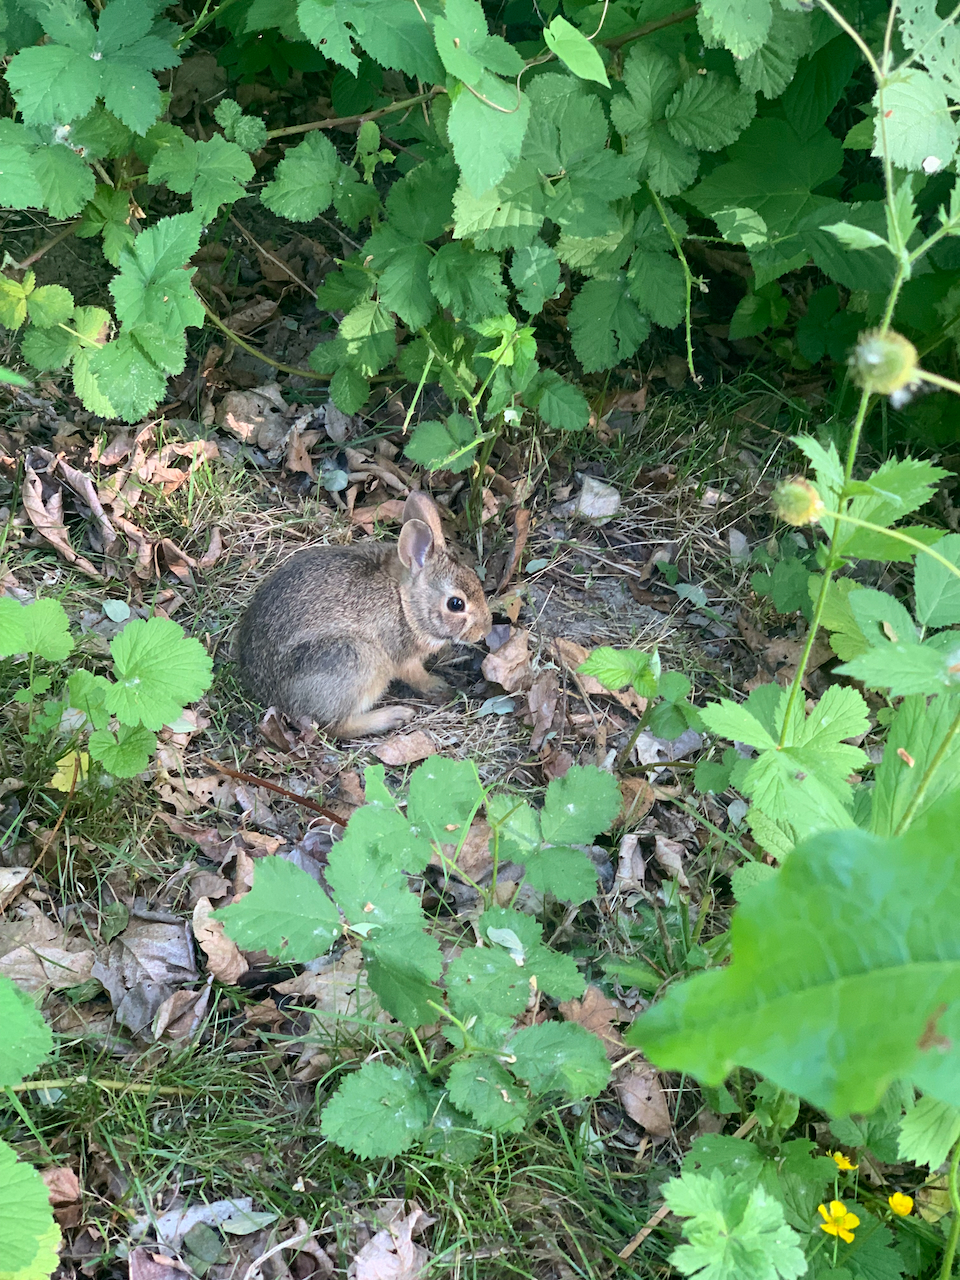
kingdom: Animalia
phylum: Chordata
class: Mammalia
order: Lagomorpha
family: Leporidae
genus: Sylvilagus
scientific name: Sylvilagus floridanus
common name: Eastern cottontail
